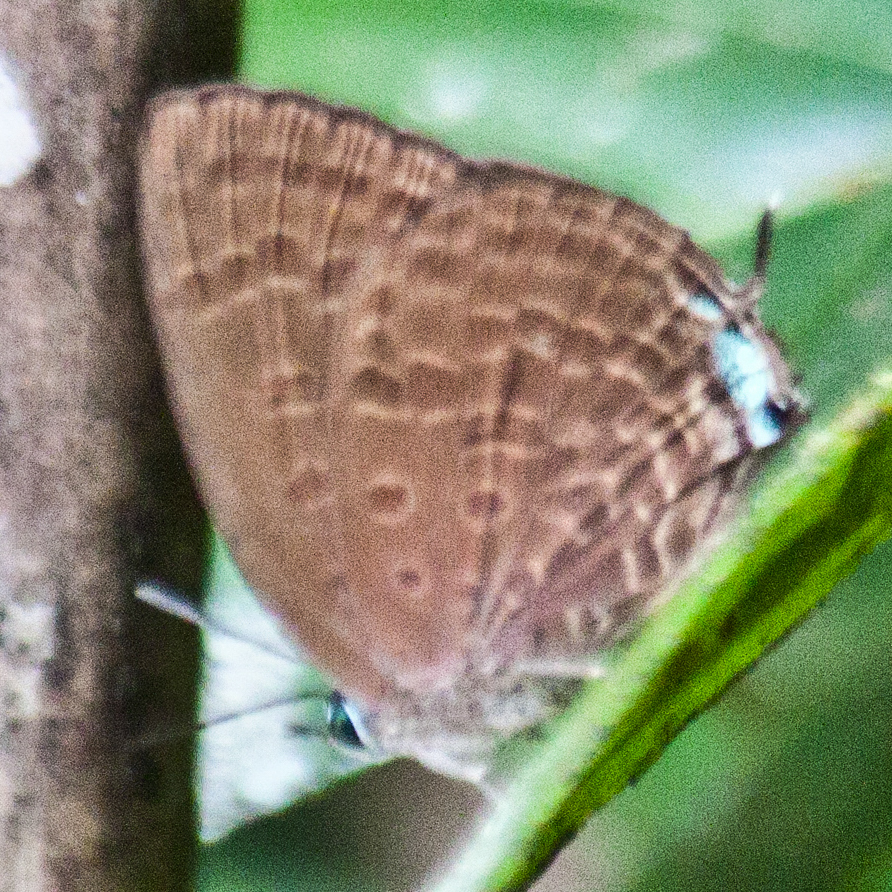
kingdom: Animalia
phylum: Arthropoda
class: Insecta
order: Lepidoptera
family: Lycaenidae
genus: Arhopala
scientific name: Arhopala agrata
